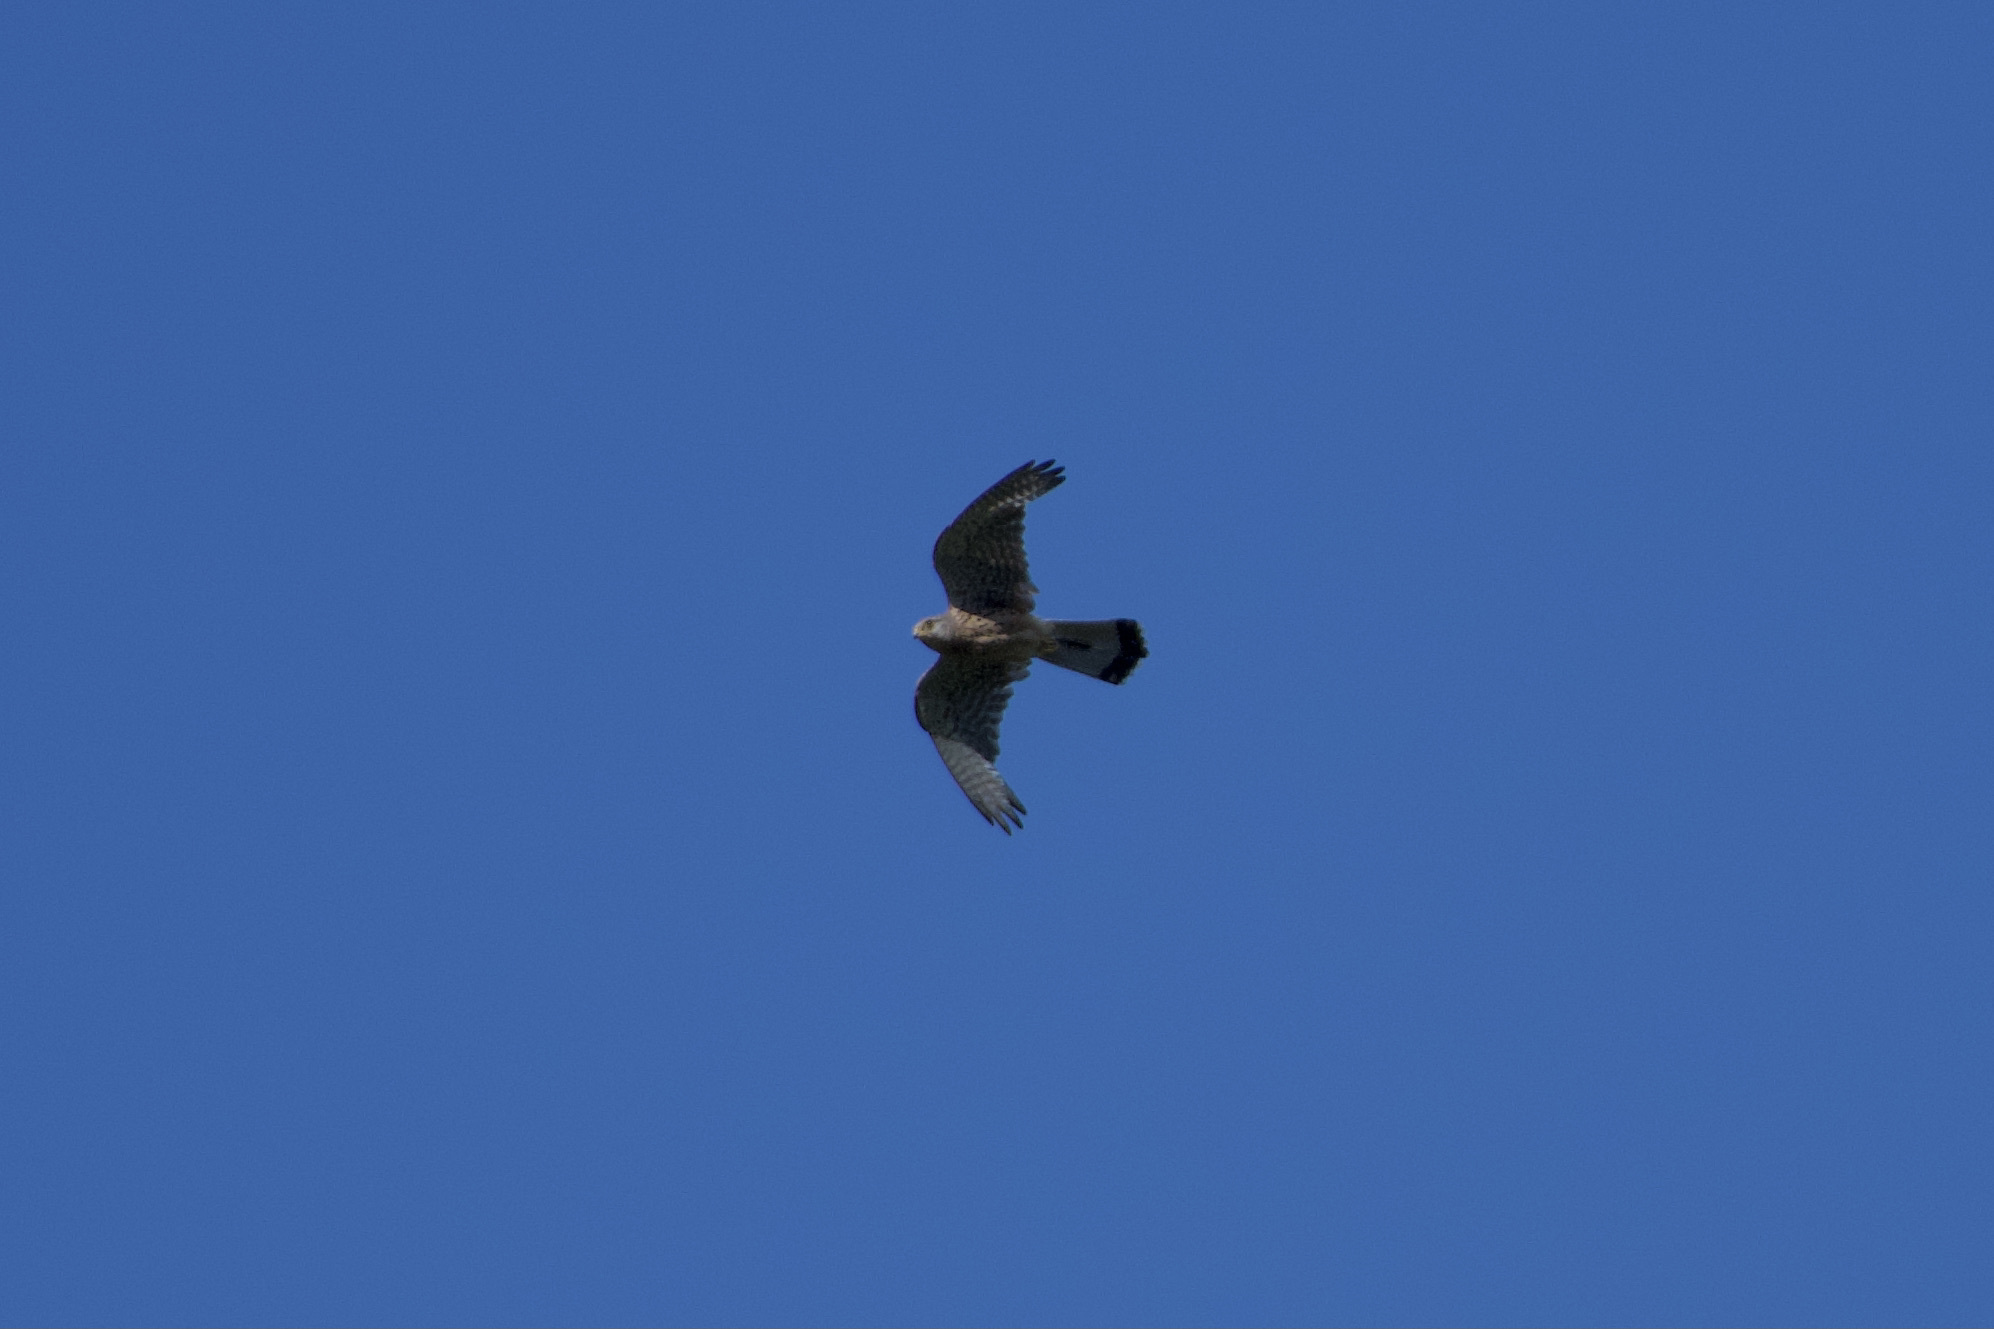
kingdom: Animalia
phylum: Chordata
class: Aves
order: Falconiformes
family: Falconidae
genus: Falco
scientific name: Falco tinnunculus
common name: Common kestrel
